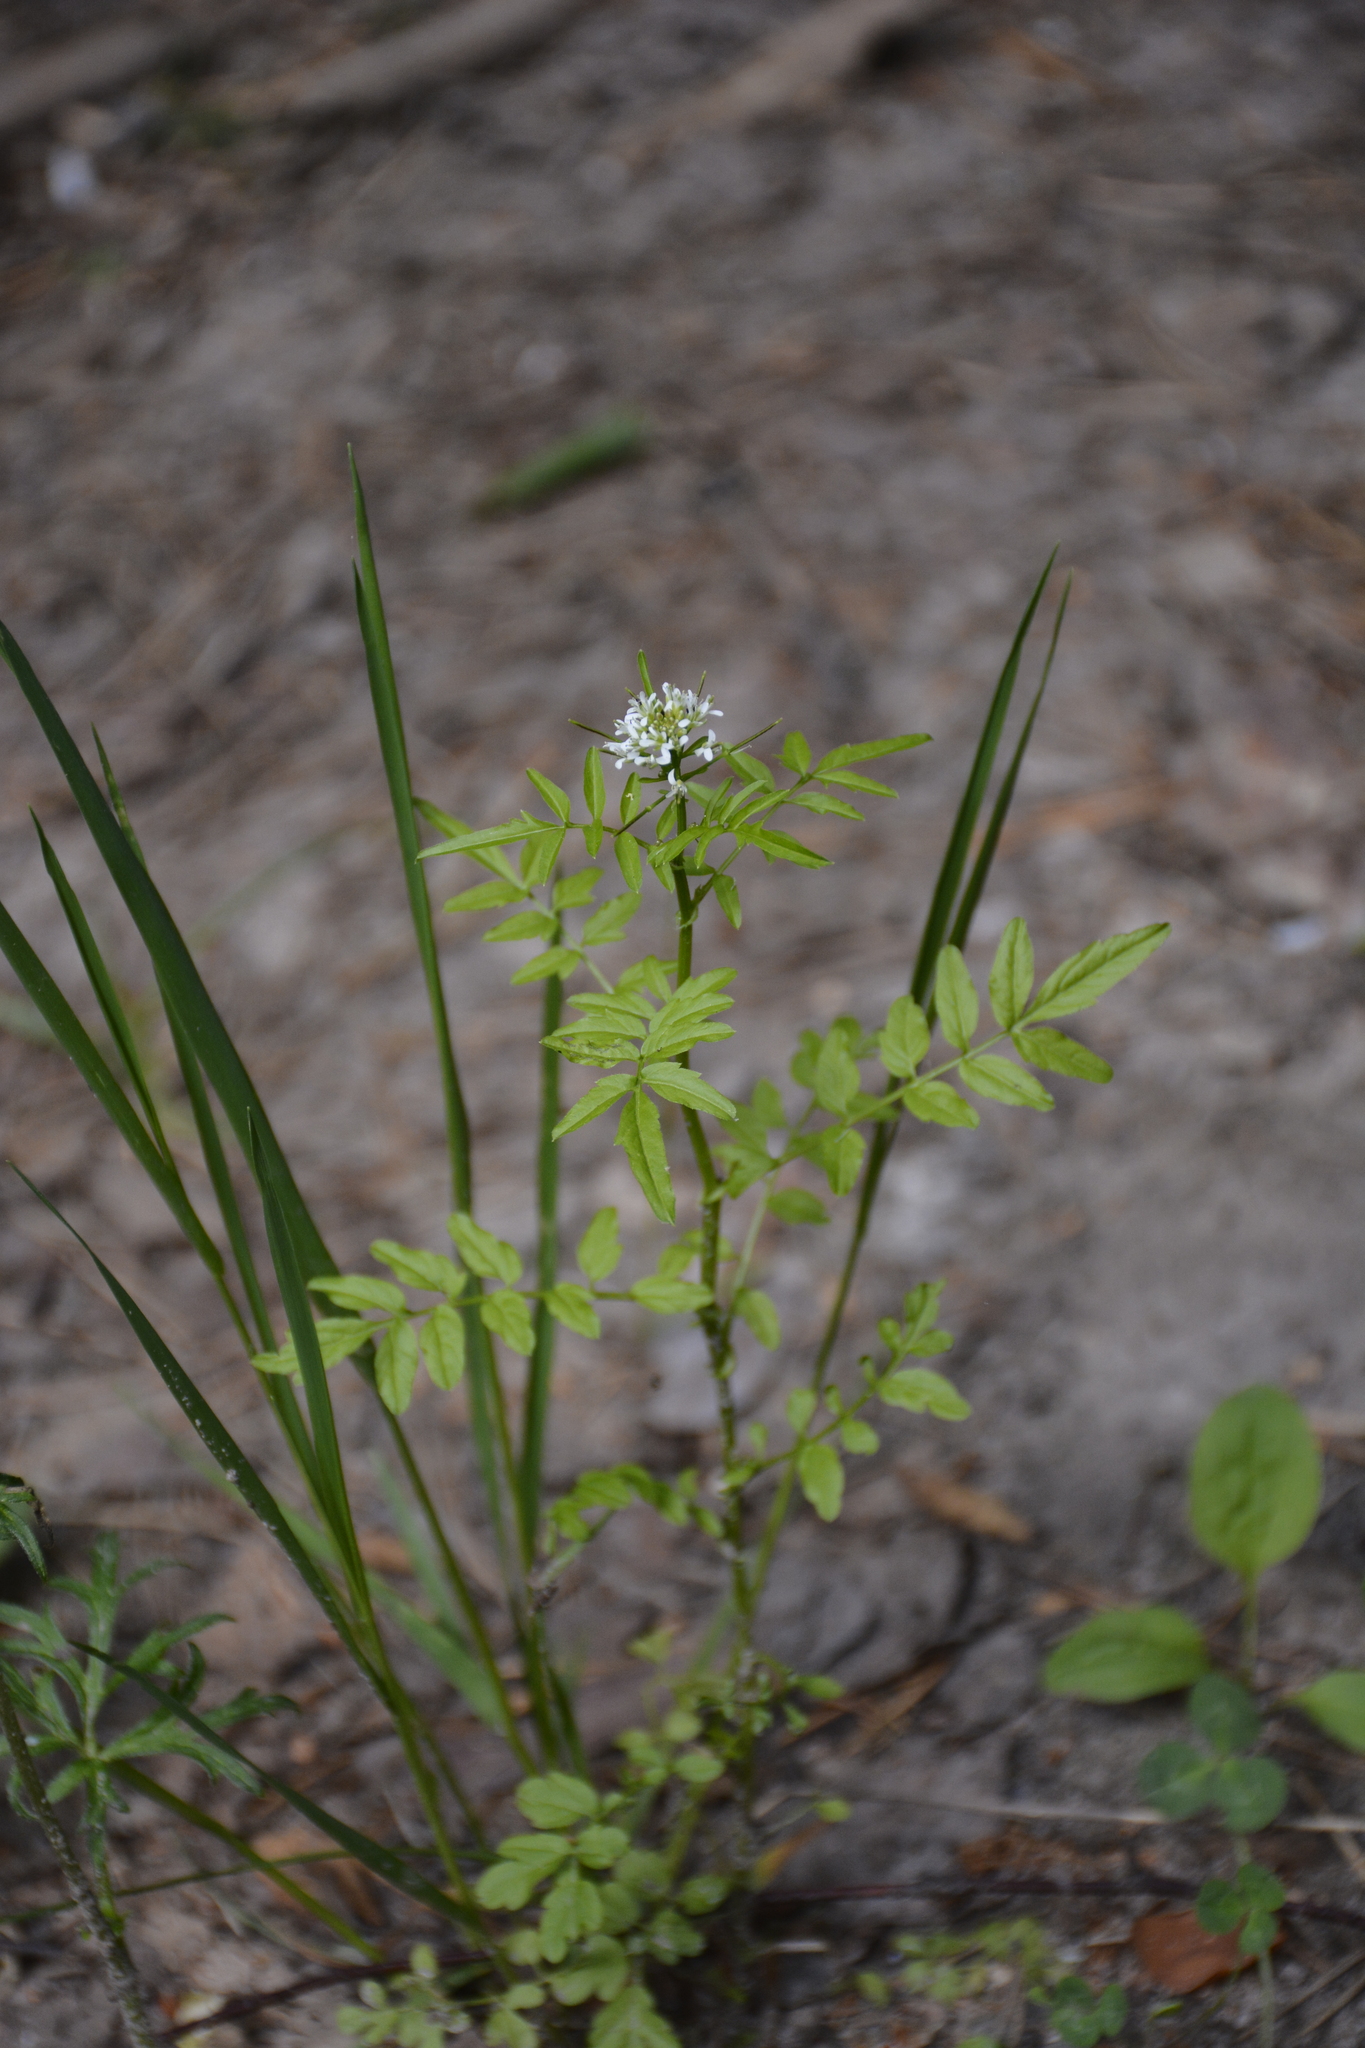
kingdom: Plantae
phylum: Tracheophyta
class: Magnoliopsida
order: Brassicales
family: Brassicaceae
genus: Cardamine
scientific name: Cardamine impatiens
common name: Narrow-leaved bitter-cress
